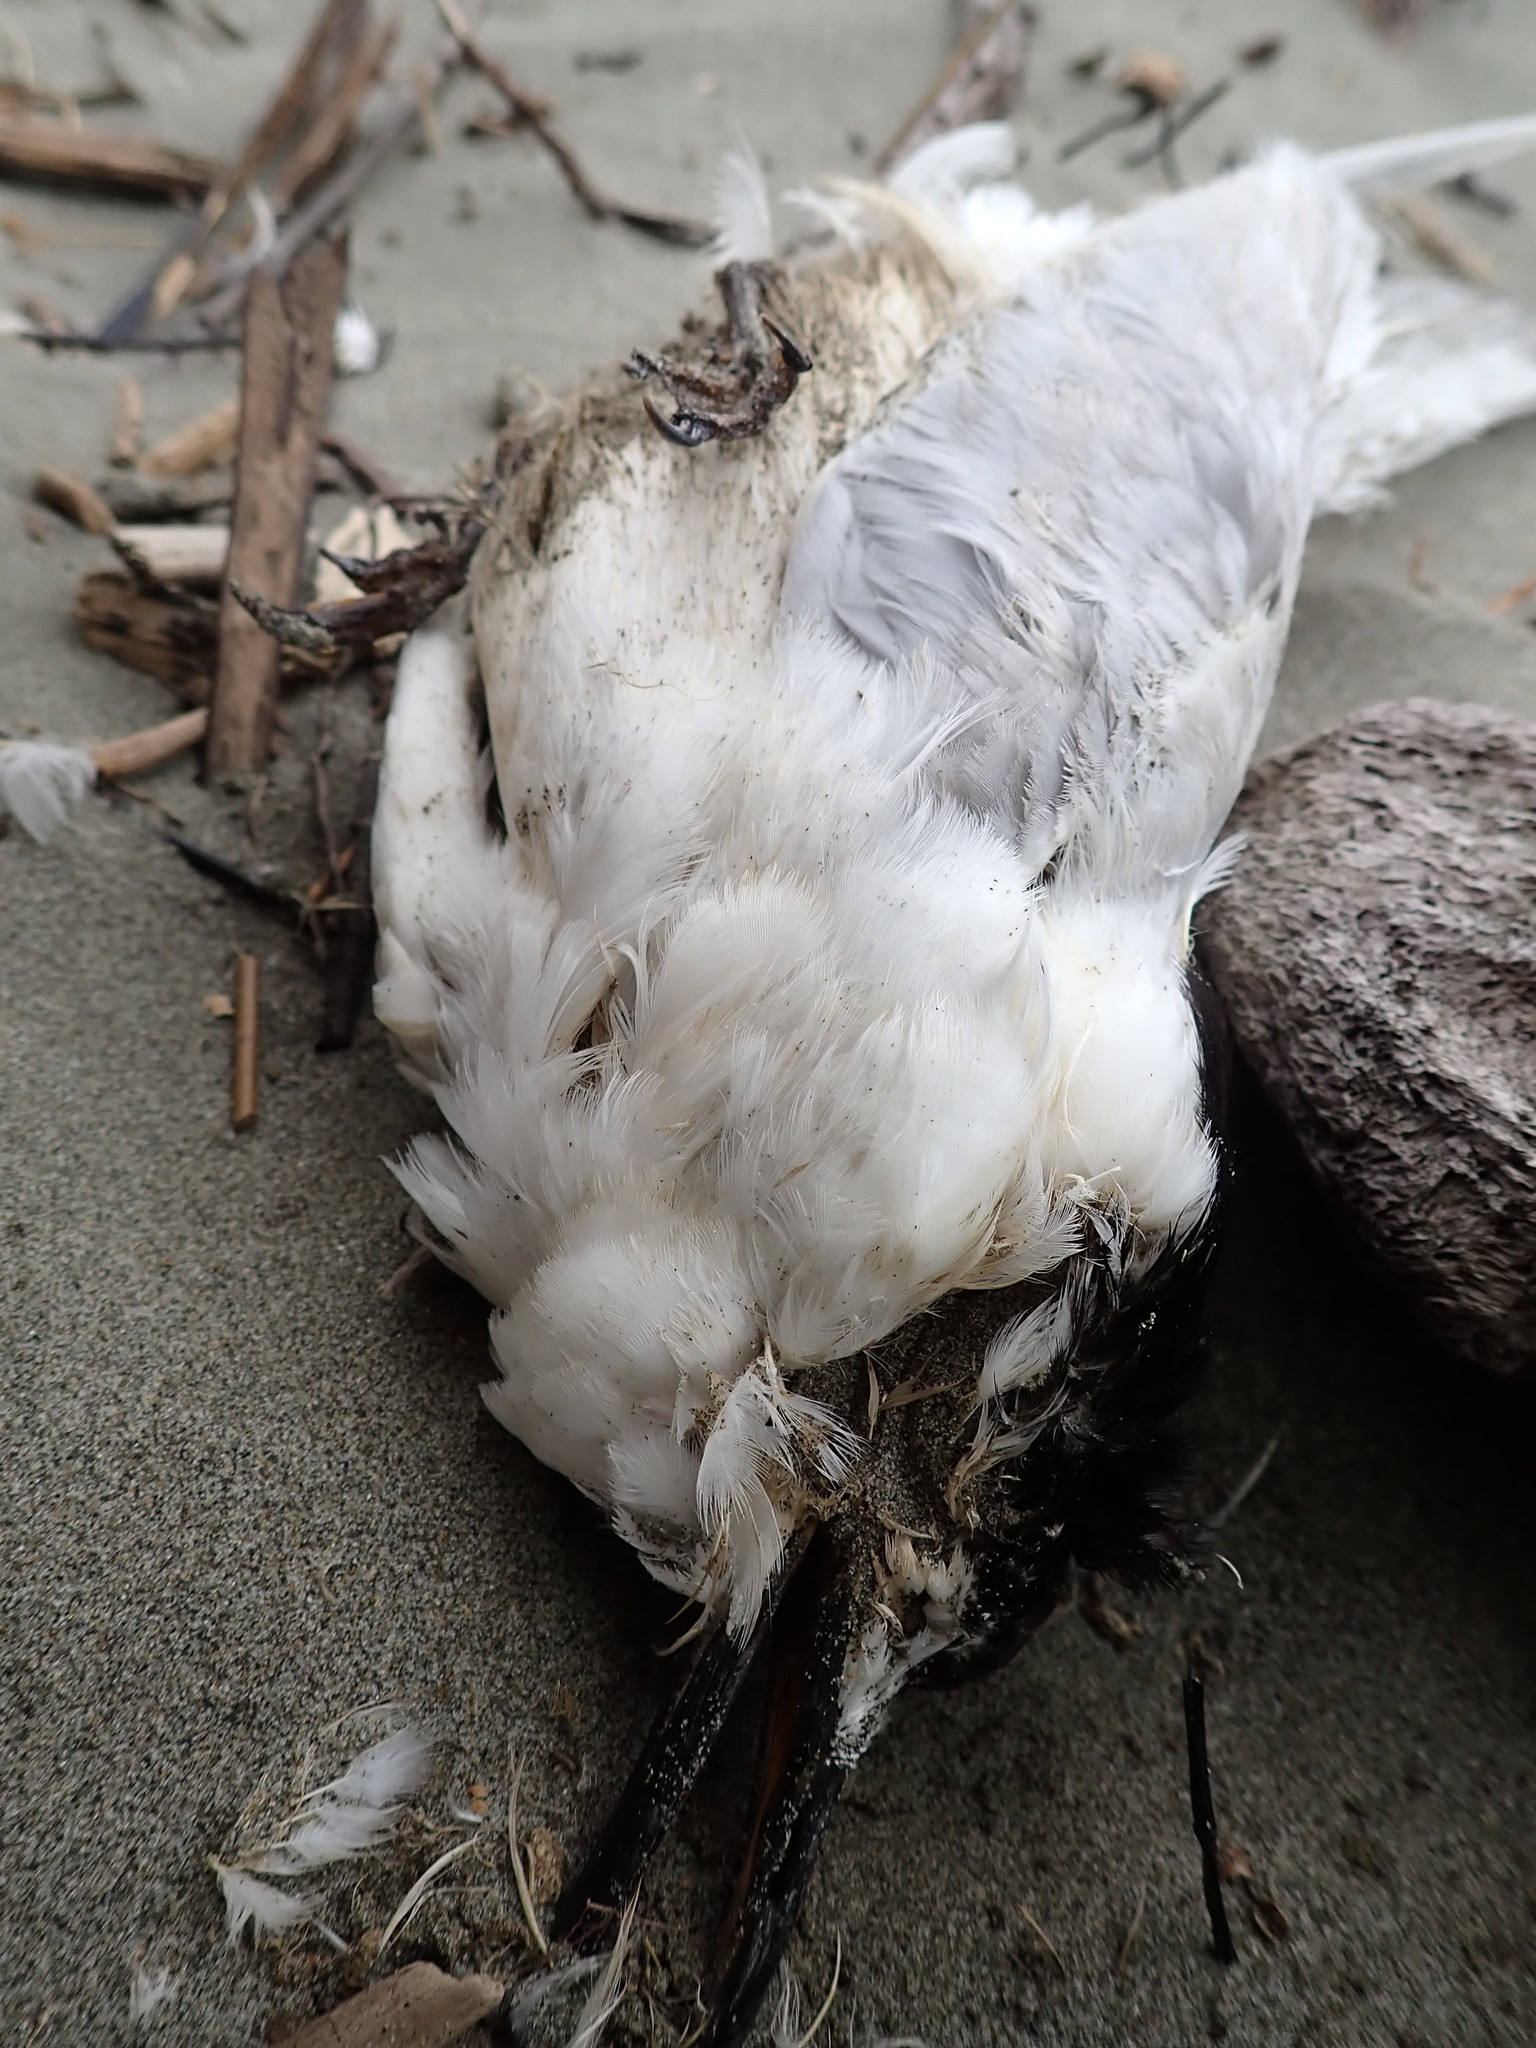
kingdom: Animalia
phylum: Chordata
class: Aves
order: Charadriiformes
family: Laridae
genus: Sterna
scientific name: Sterna striata
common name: White-fronted tern
